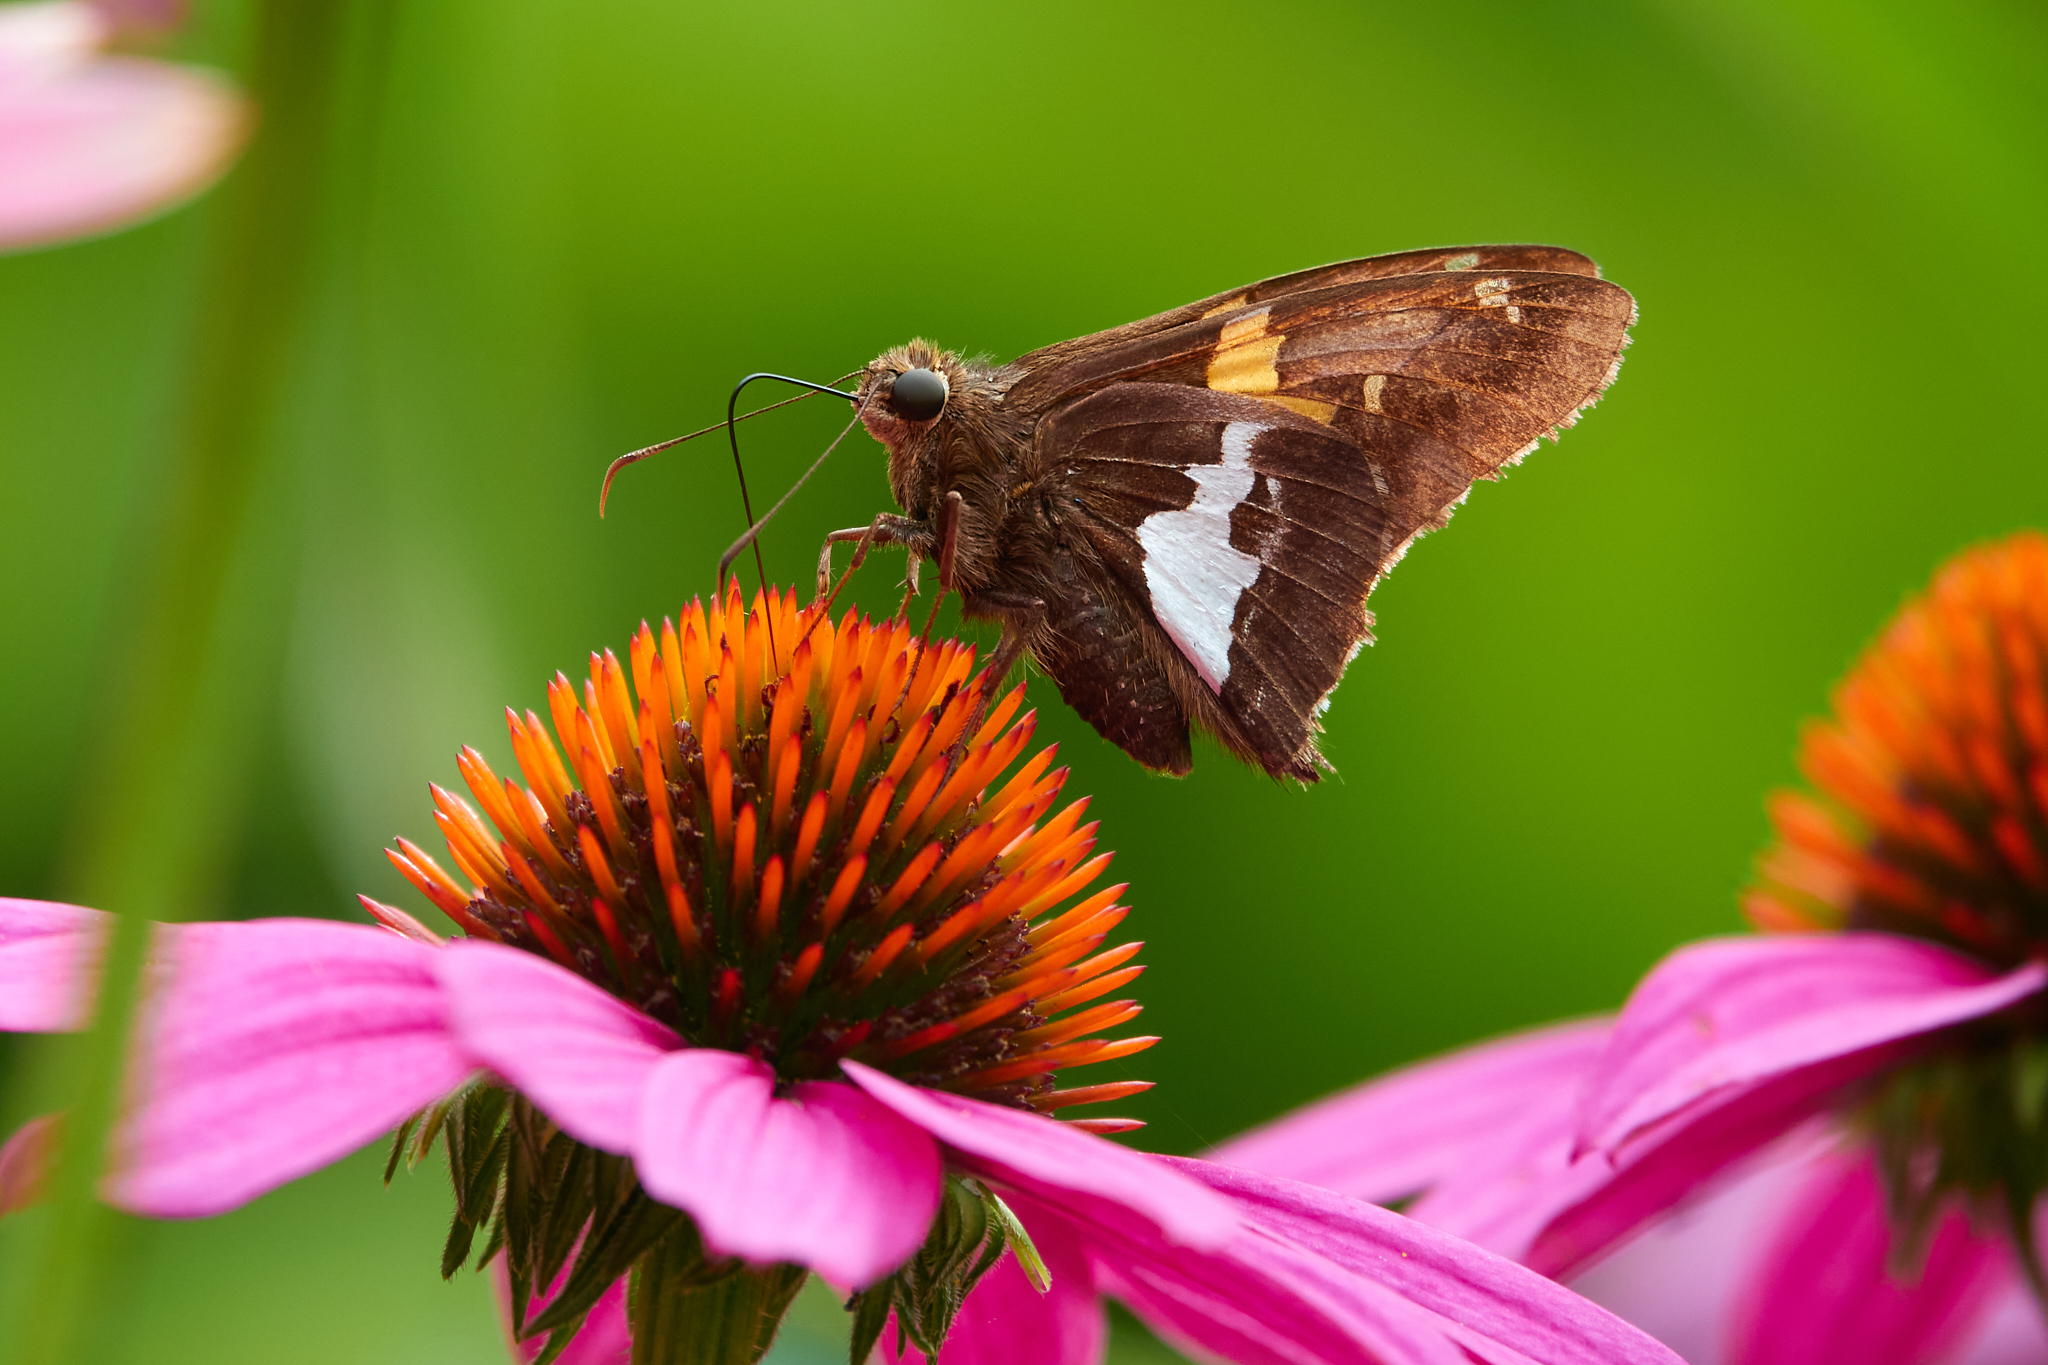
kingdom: Animalia
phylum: Arthropoda
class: Insecta
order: Lepidoptera
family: Hesperiidae
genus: Epargyreus
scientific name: Epargyreus clarus
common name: Silver-spotted skipper
